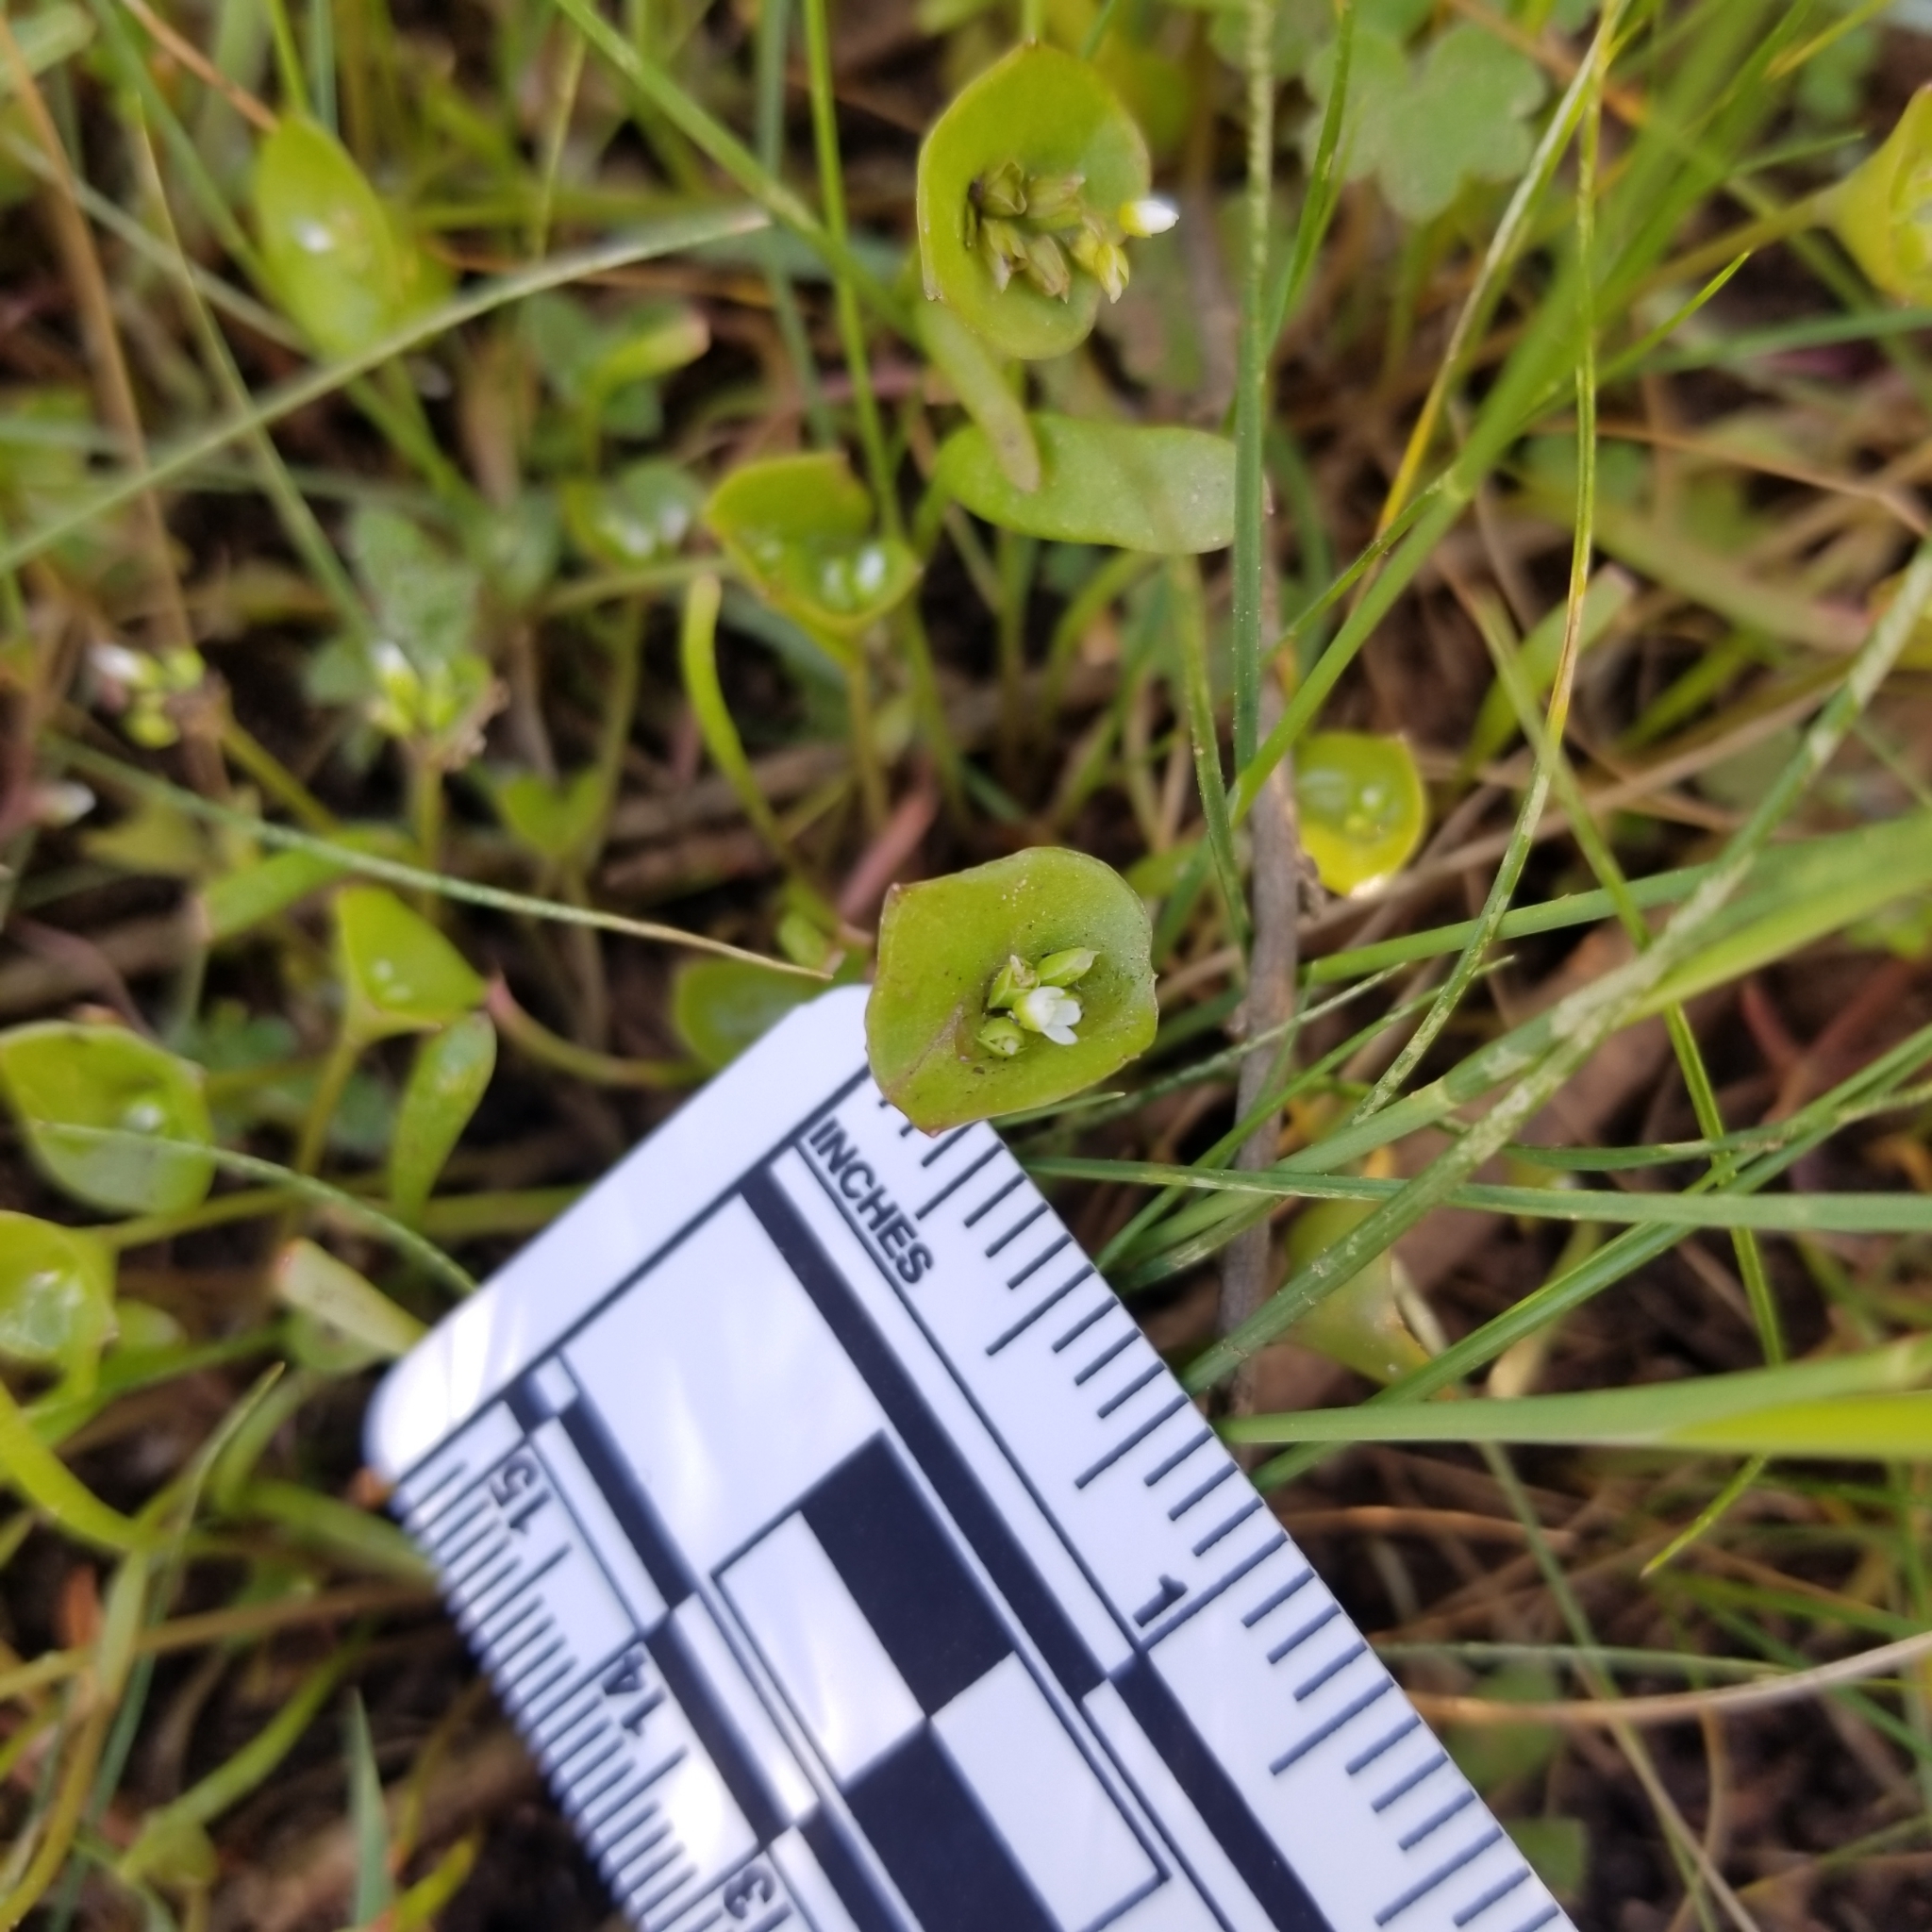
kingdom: Plantae
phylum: Tracheophyta
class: Magnoliopsida
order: Caryophyllales
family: Montiaceae
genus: Claytonia
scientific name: Claytonia parviflora
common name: Indian-lettuce
